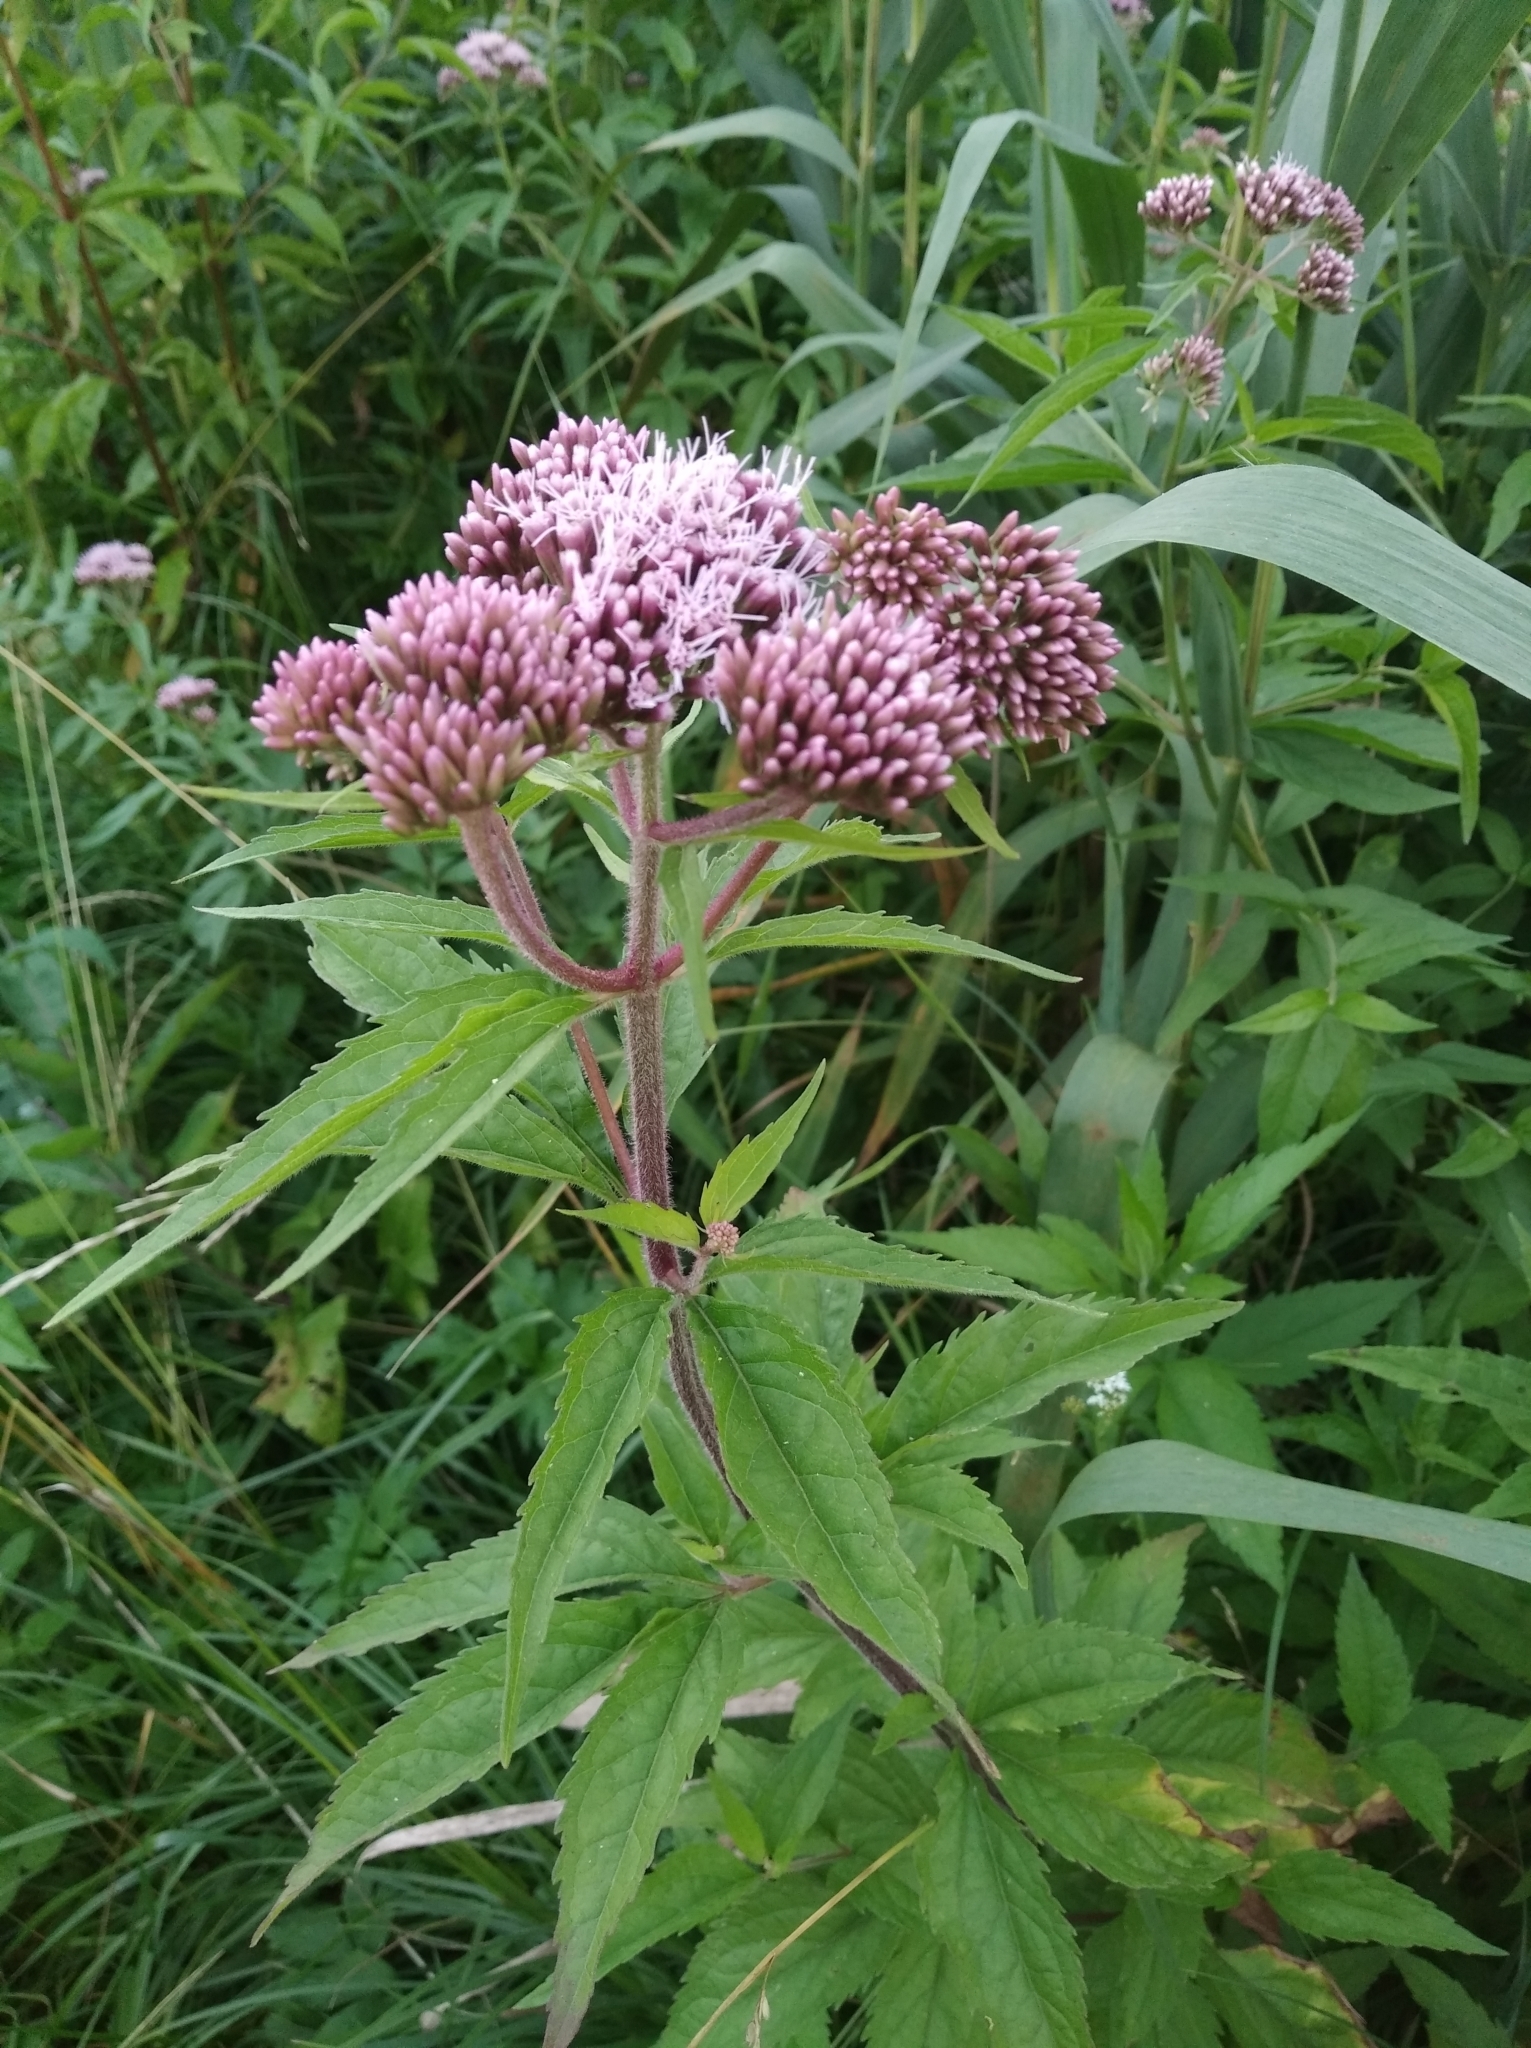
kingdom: Plantae
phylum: Tracheophyta
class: Magnoliopsida
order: Asterales
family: Asteraceae
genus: Eupatorium
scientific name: Eupatorium cannabinum
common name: Hemp-agrimony
